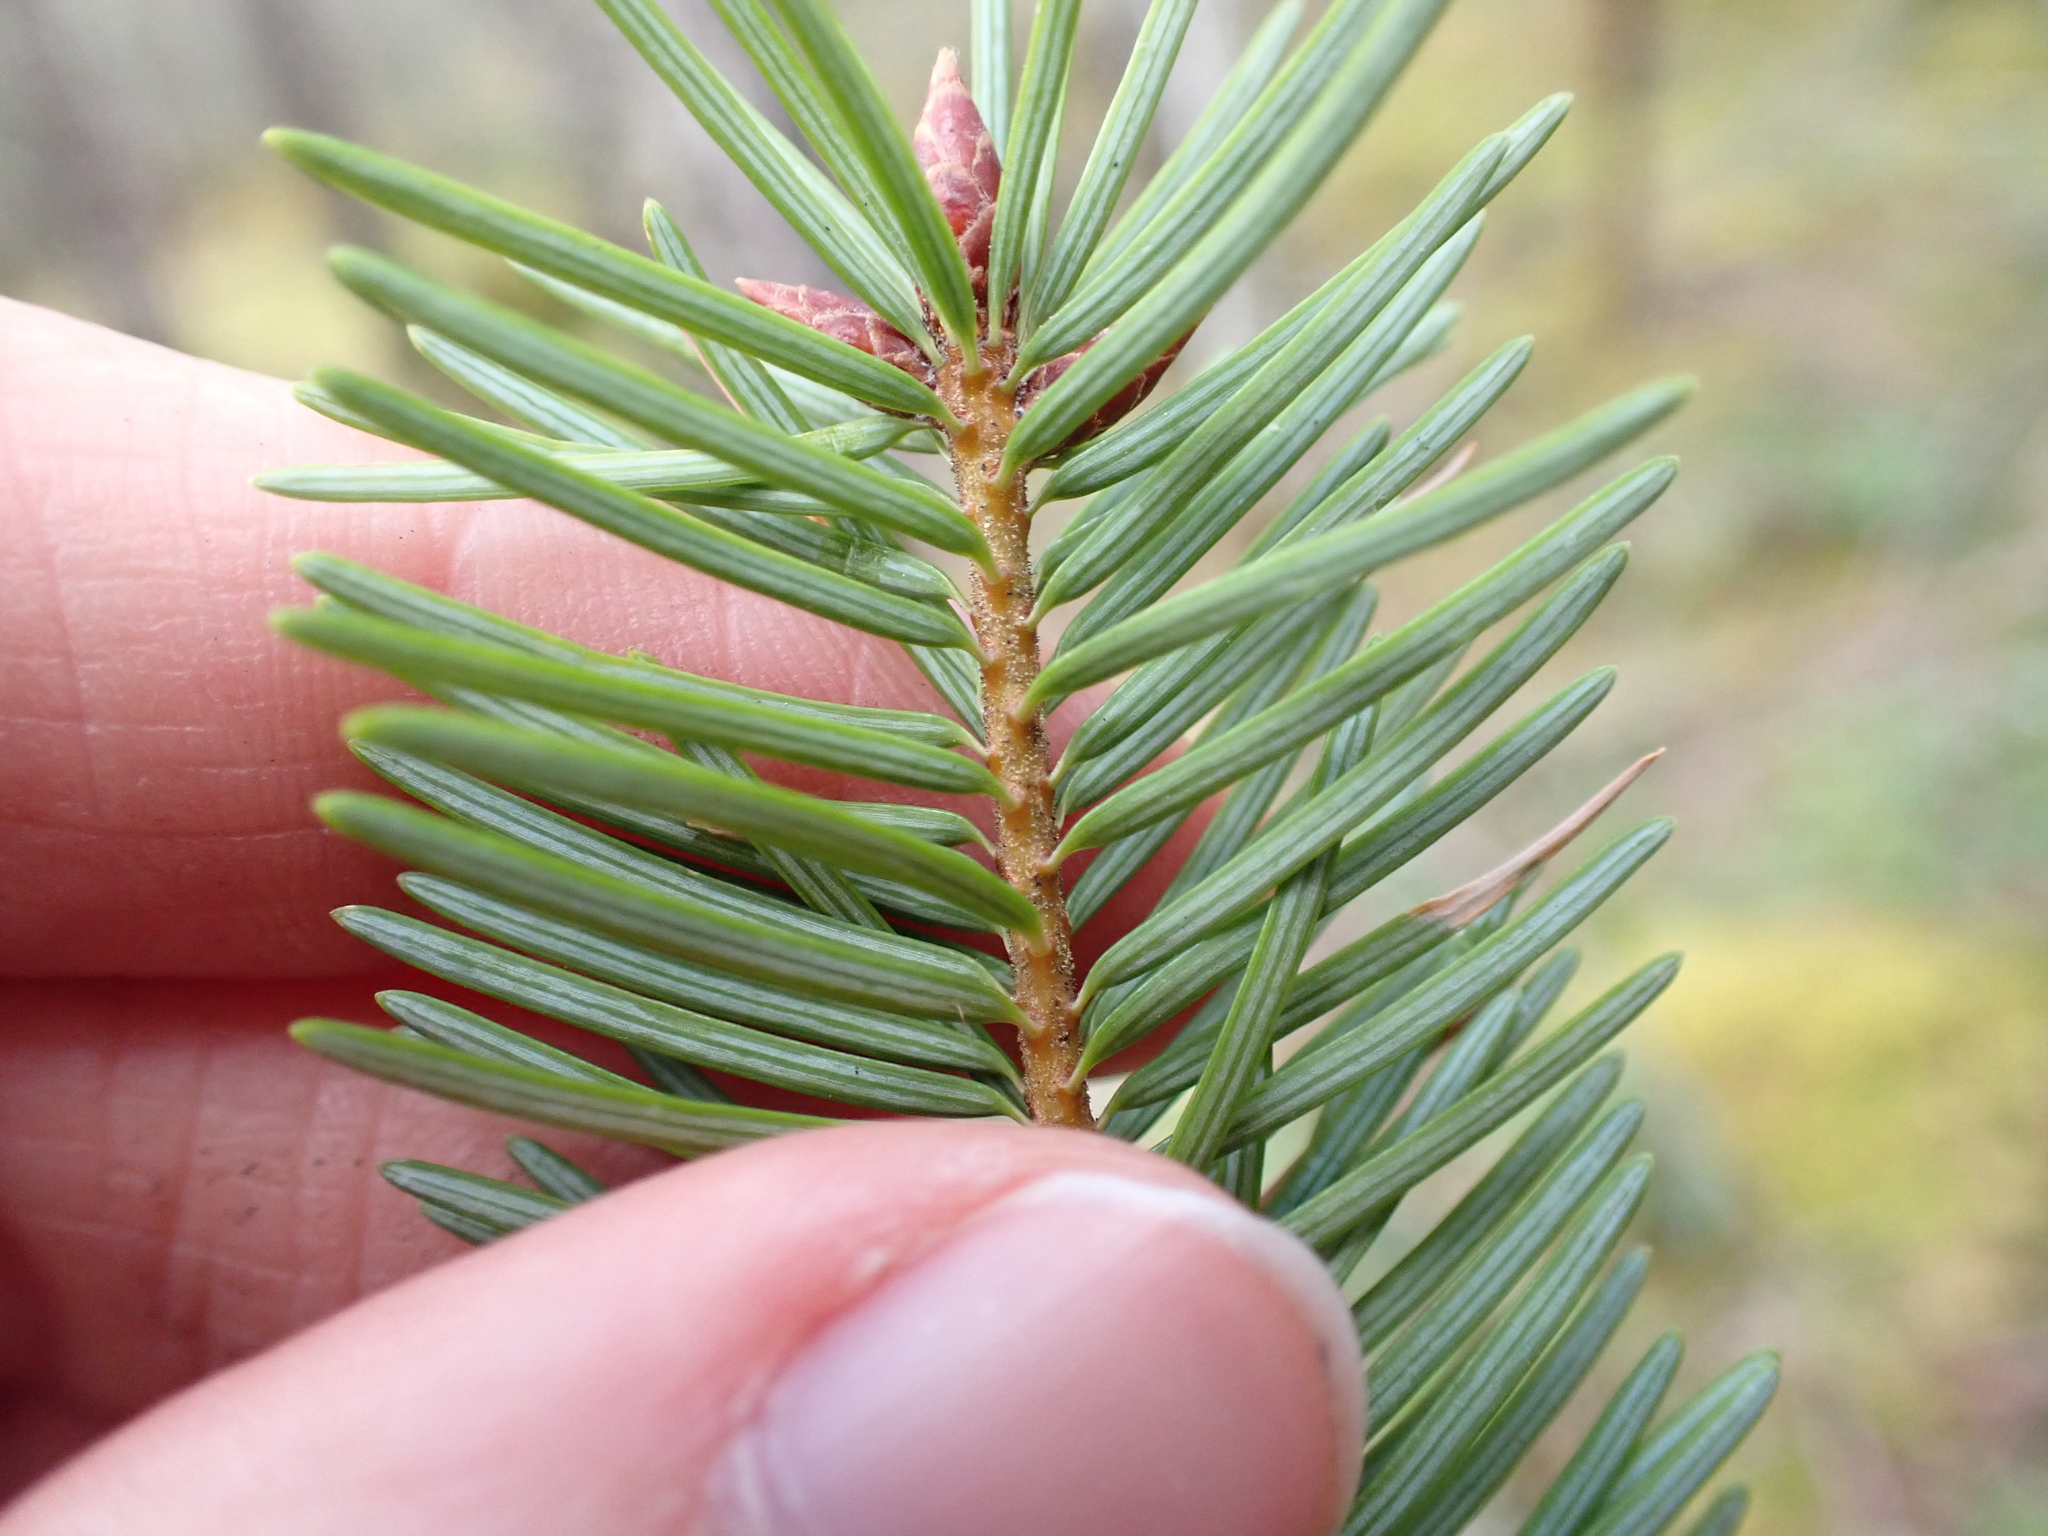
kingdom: Plantae
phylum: Tracheophyta
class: Pinopsida
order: Pinales
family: Pinaceae
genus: Pseudotsuga
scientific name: Pseudotsuga menziesii
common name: Douglas fir
